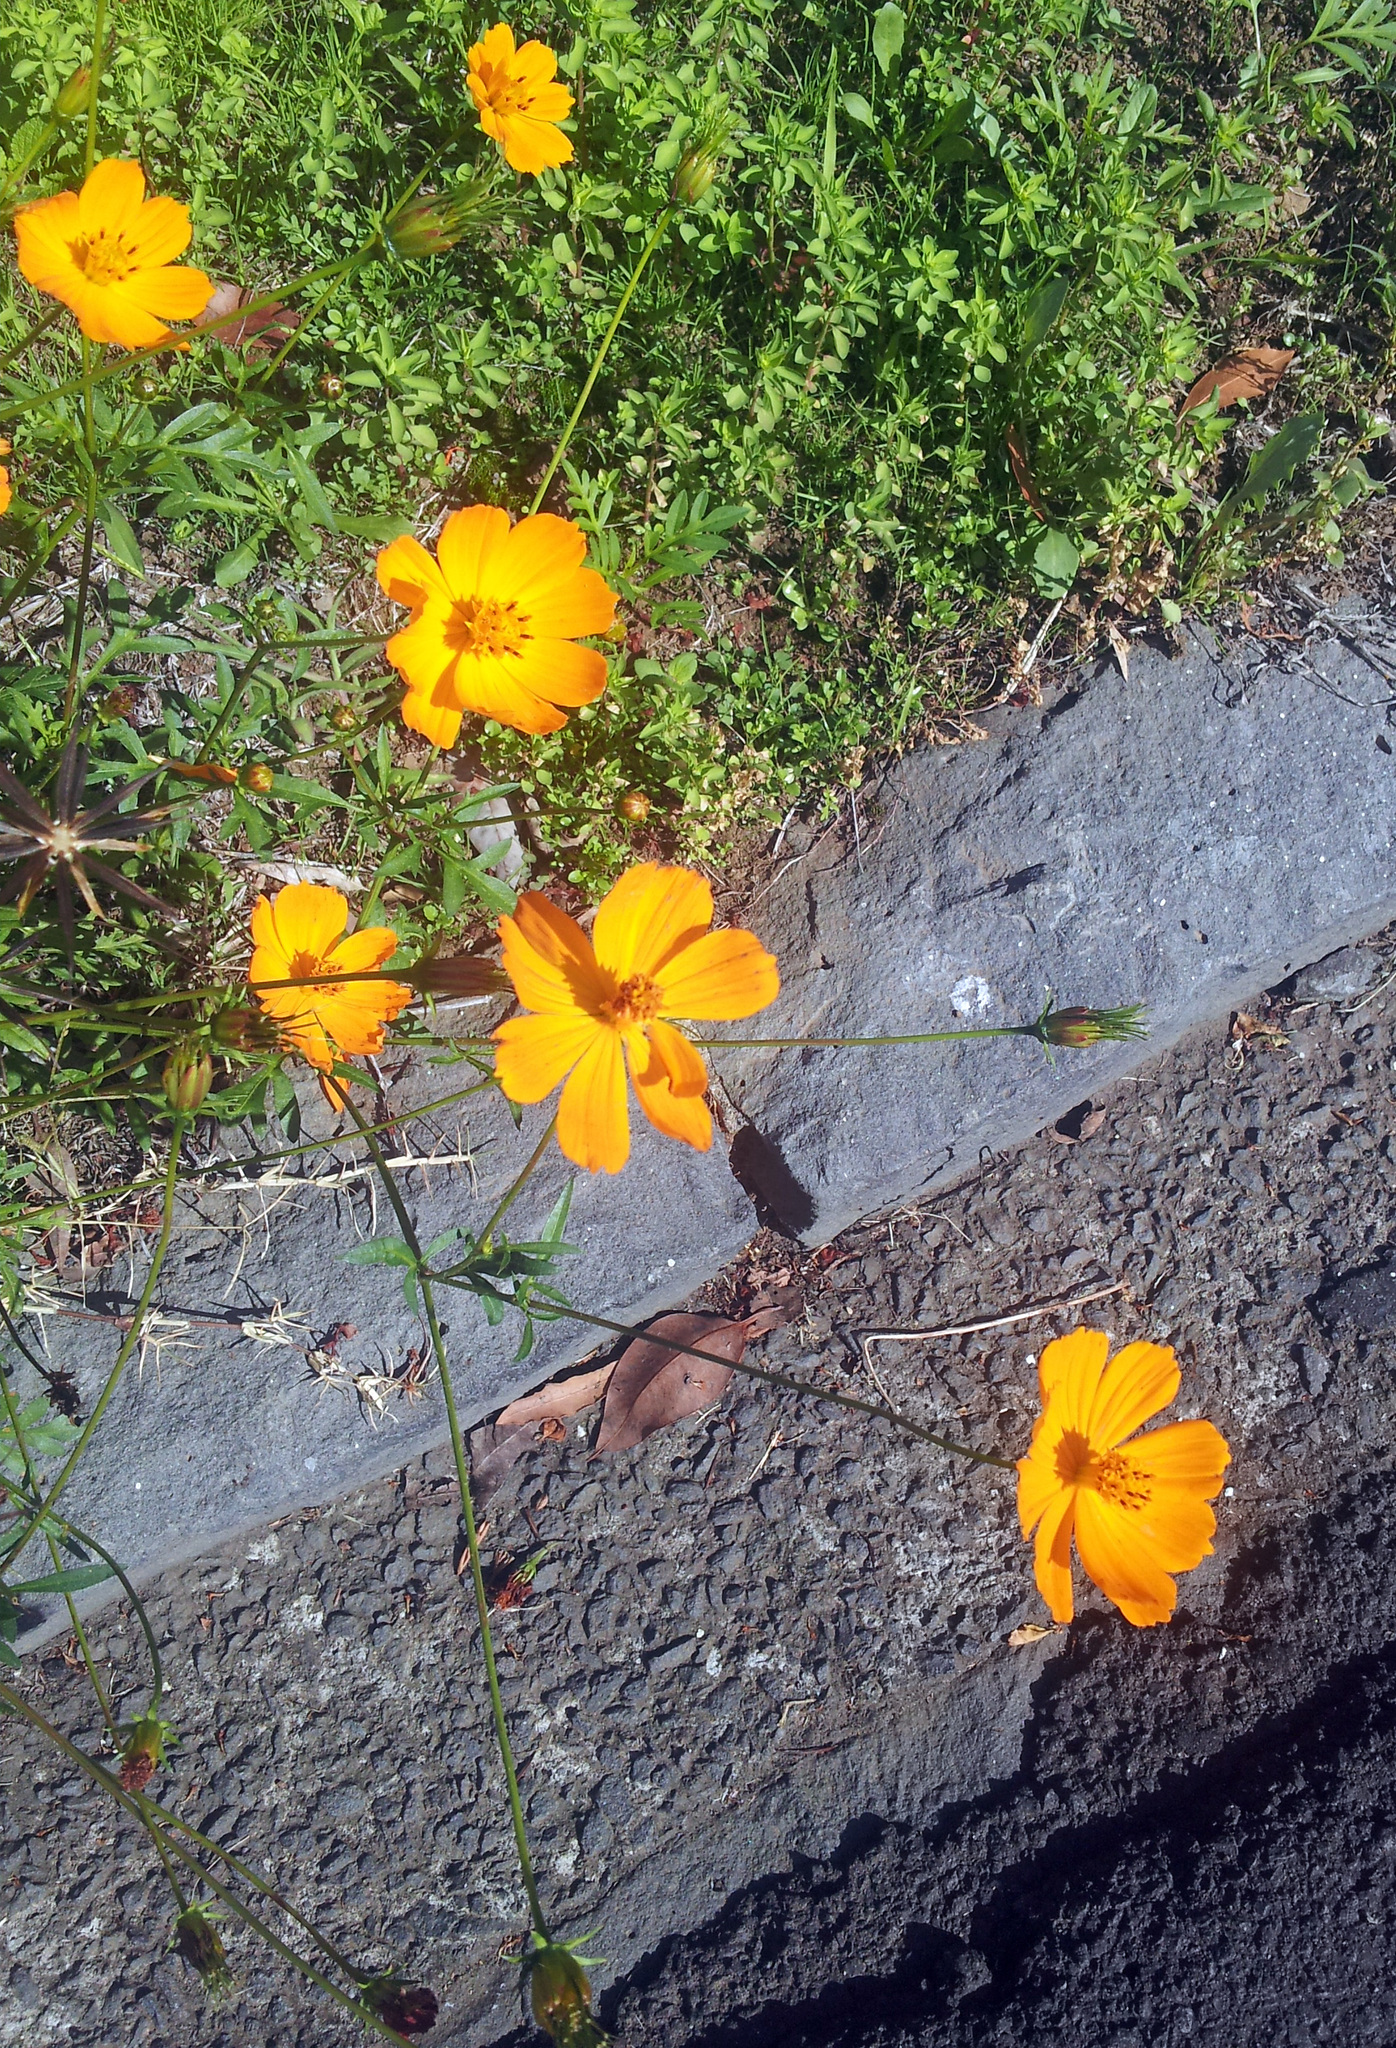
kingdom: Plantae
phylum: Tracheophyta
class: Magnoliopsida
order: Asterales
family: Asteraceae
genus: Cosmos
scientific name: Cosmos sulphureus
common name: Sulphur cosmos
